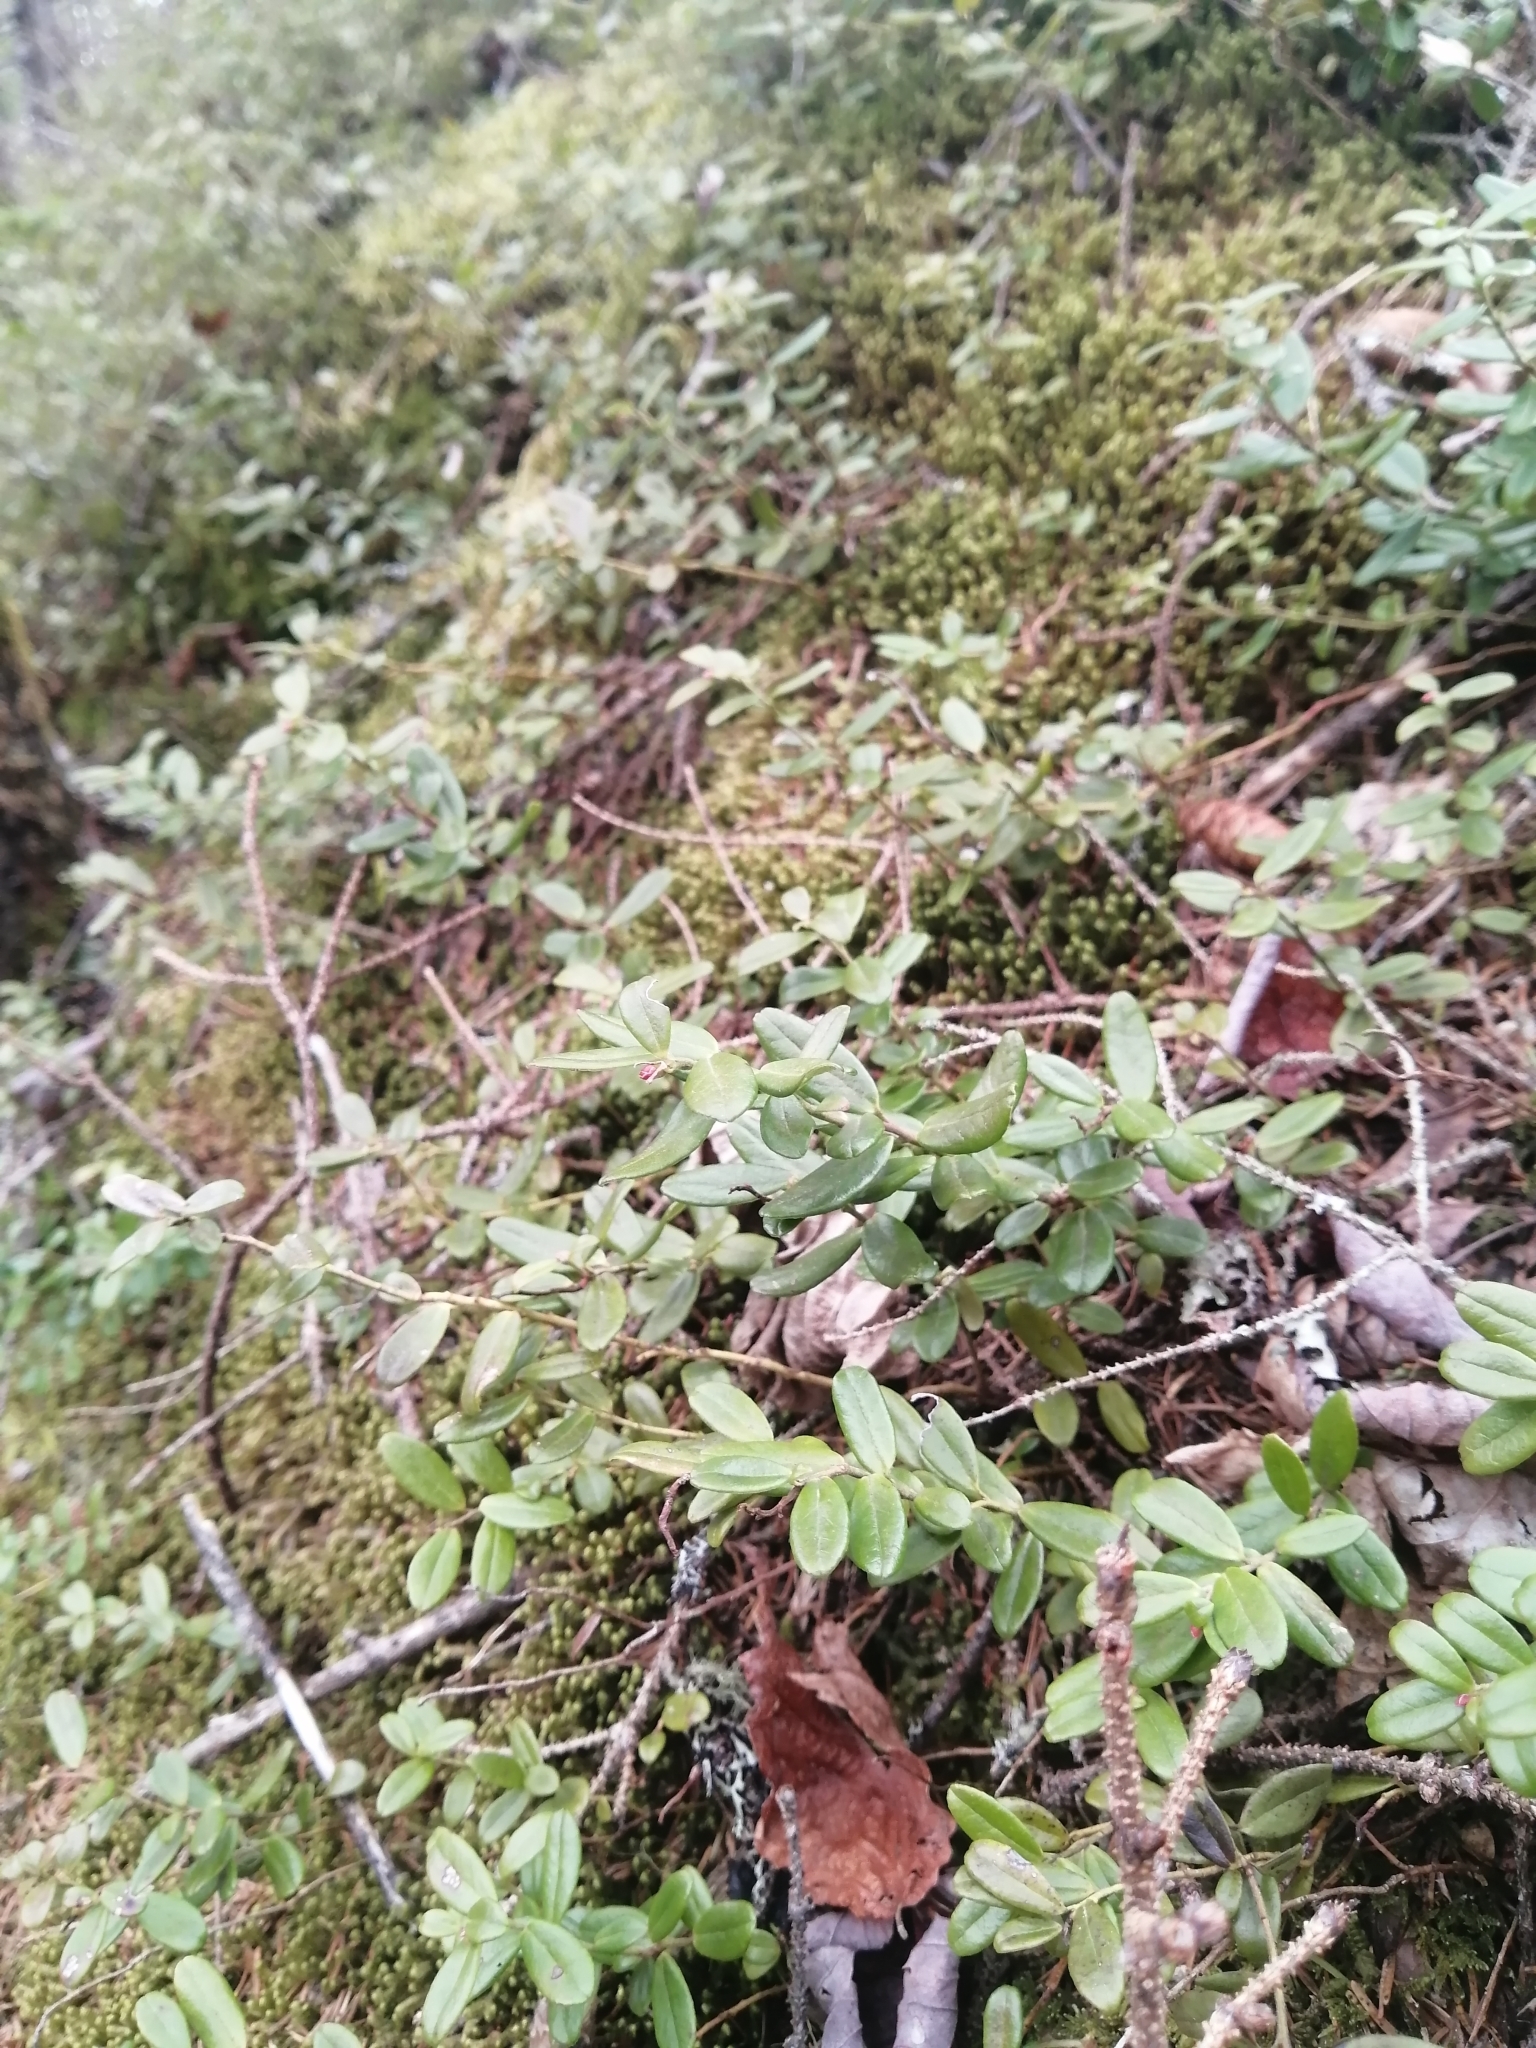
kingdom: Plantae
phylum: Tracheophyta
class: Magnoliopsida
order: Ericales
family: Ericaceae
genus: Vaccinium
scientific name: Vaccinium vitis-idaea
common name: Cowberry
